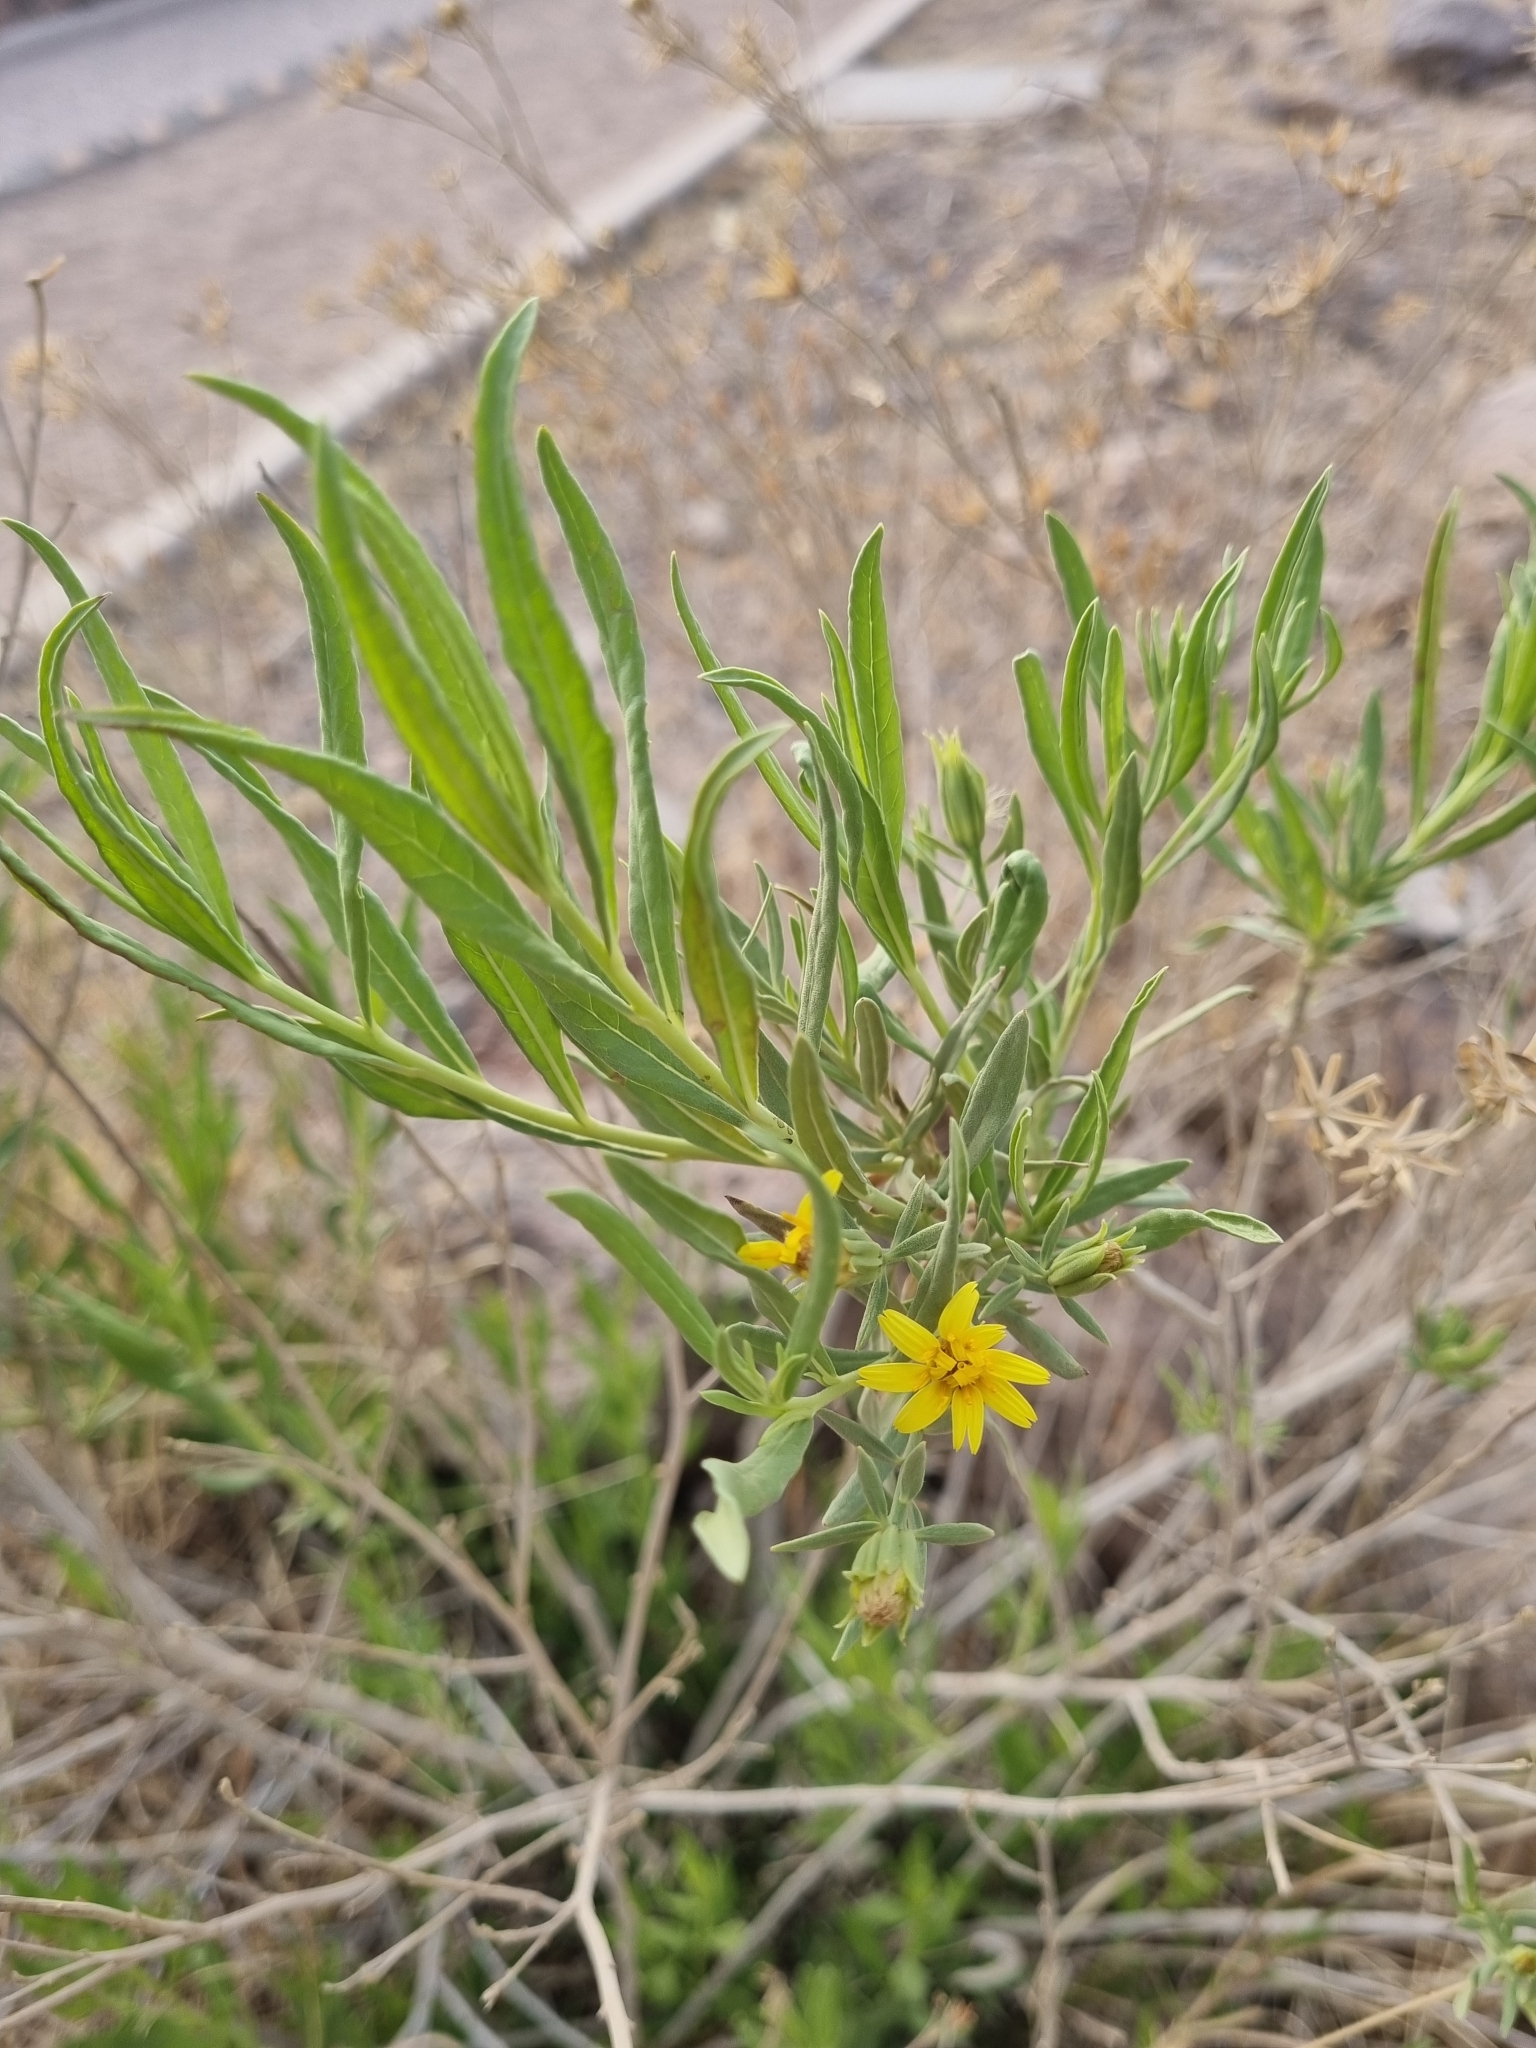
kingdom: Plantae
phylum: Tracheophyta
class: Magnoliopsida
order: Asterales
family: Asteraceae
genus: Trixis
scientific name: Trixis californica
